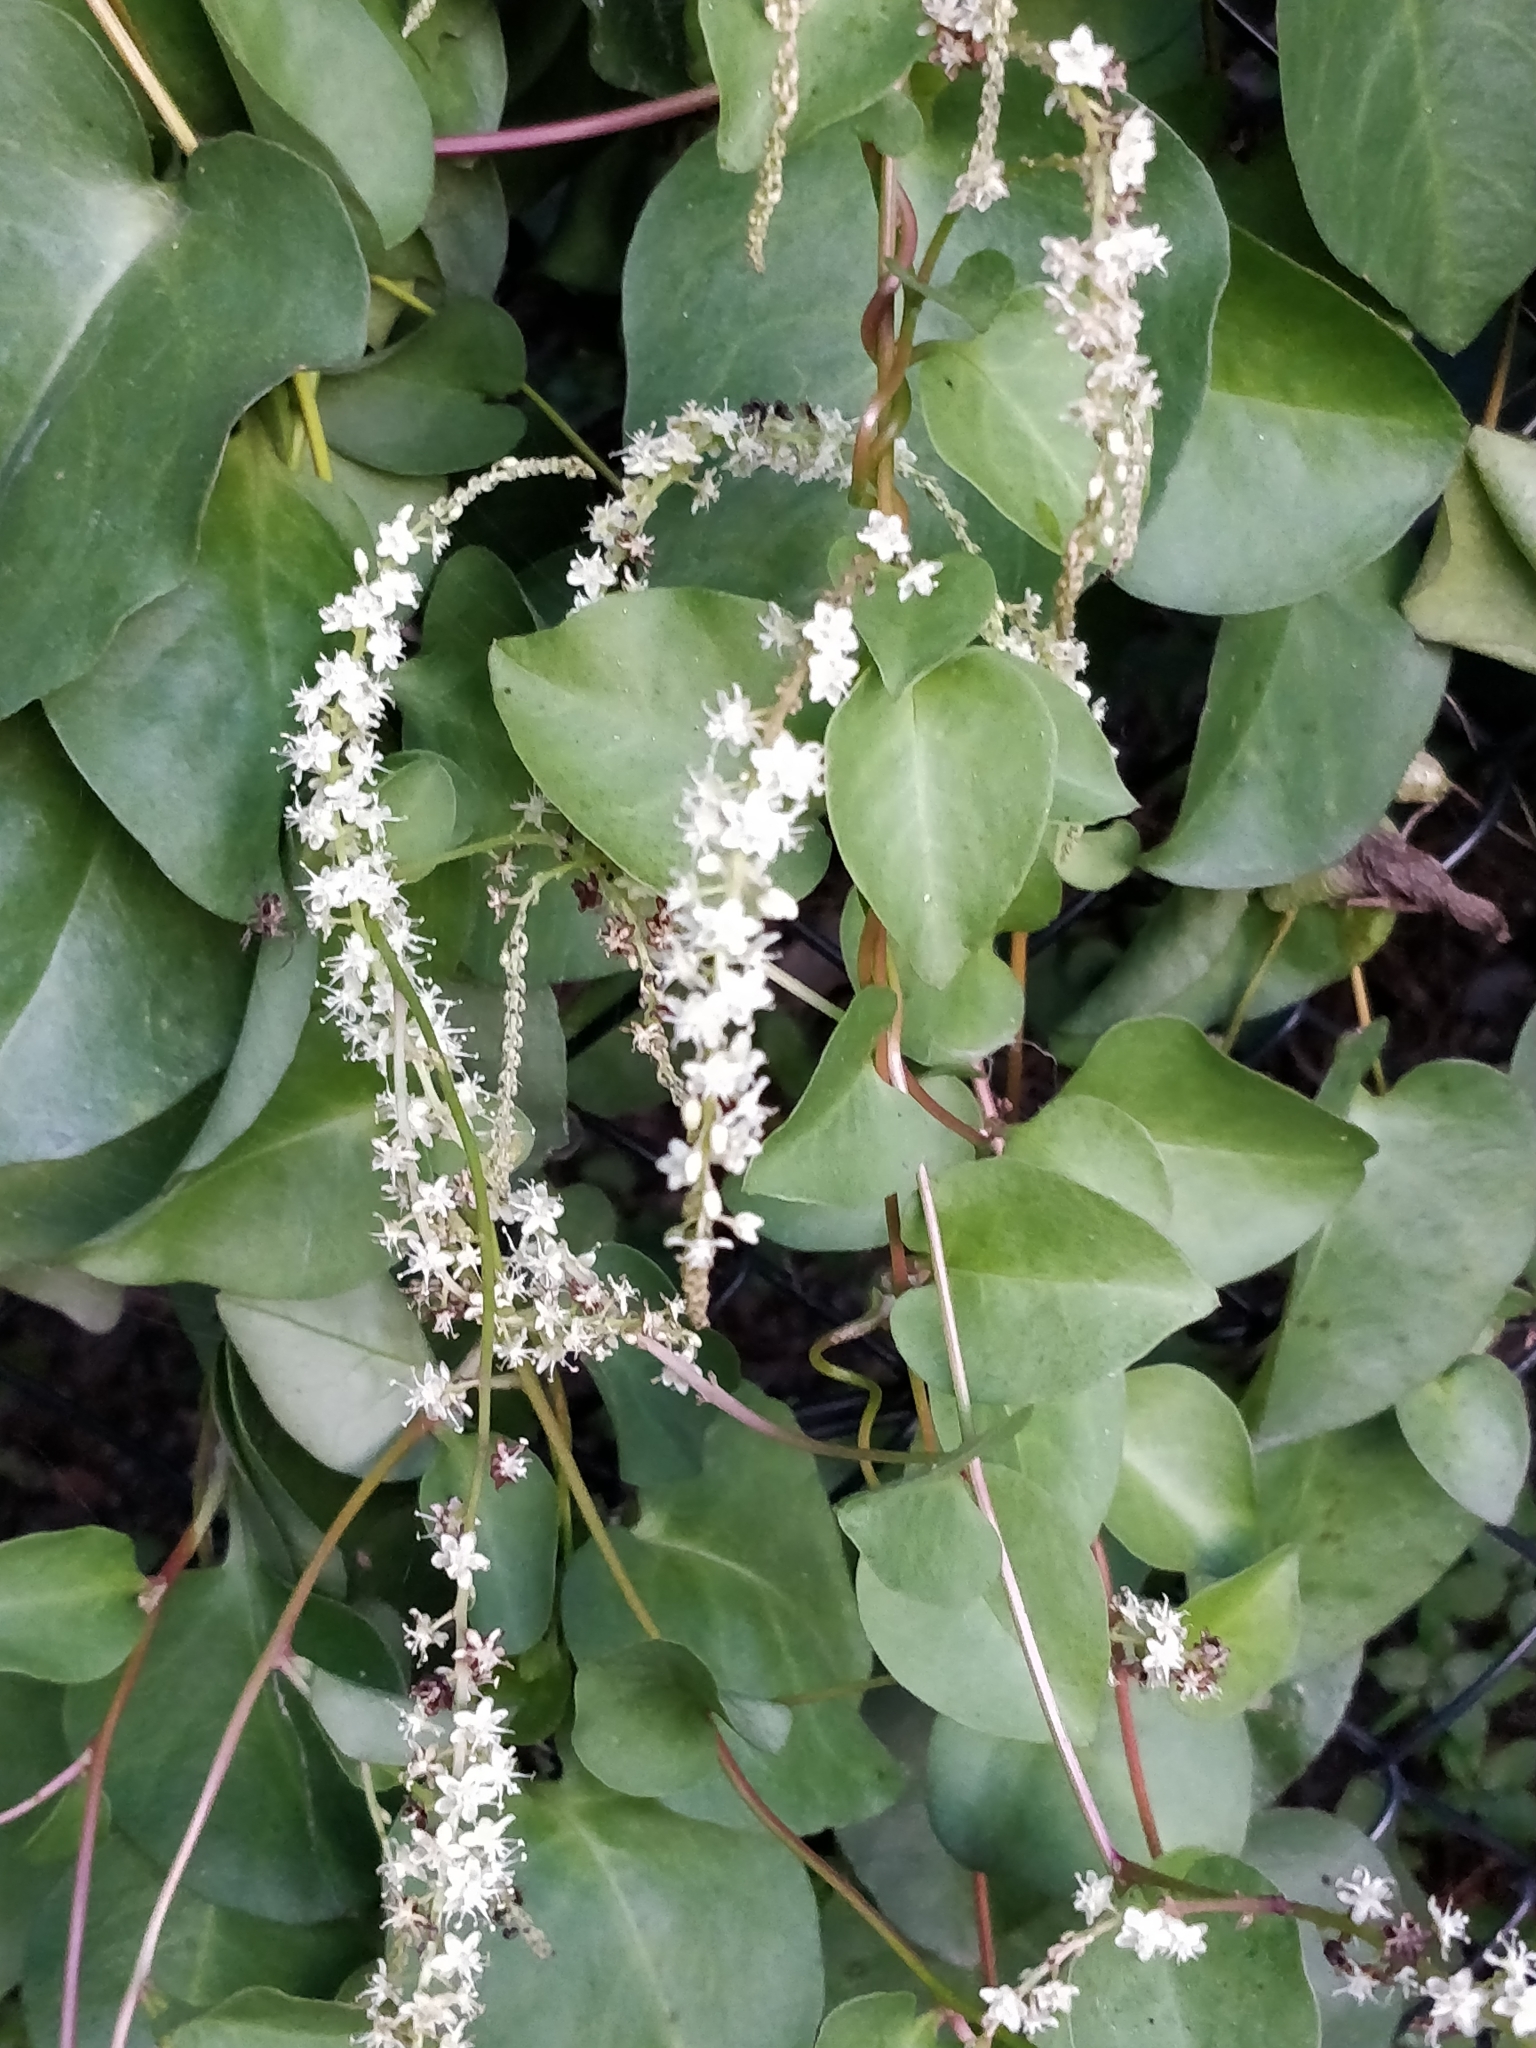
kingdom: Plantae
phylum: Tracheophyta
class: Magnoliopsida
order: Caryophyllales
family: Basellaceae
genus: Anredera
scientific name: Anredera cordifolia
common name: Heartleaf madeiravine
